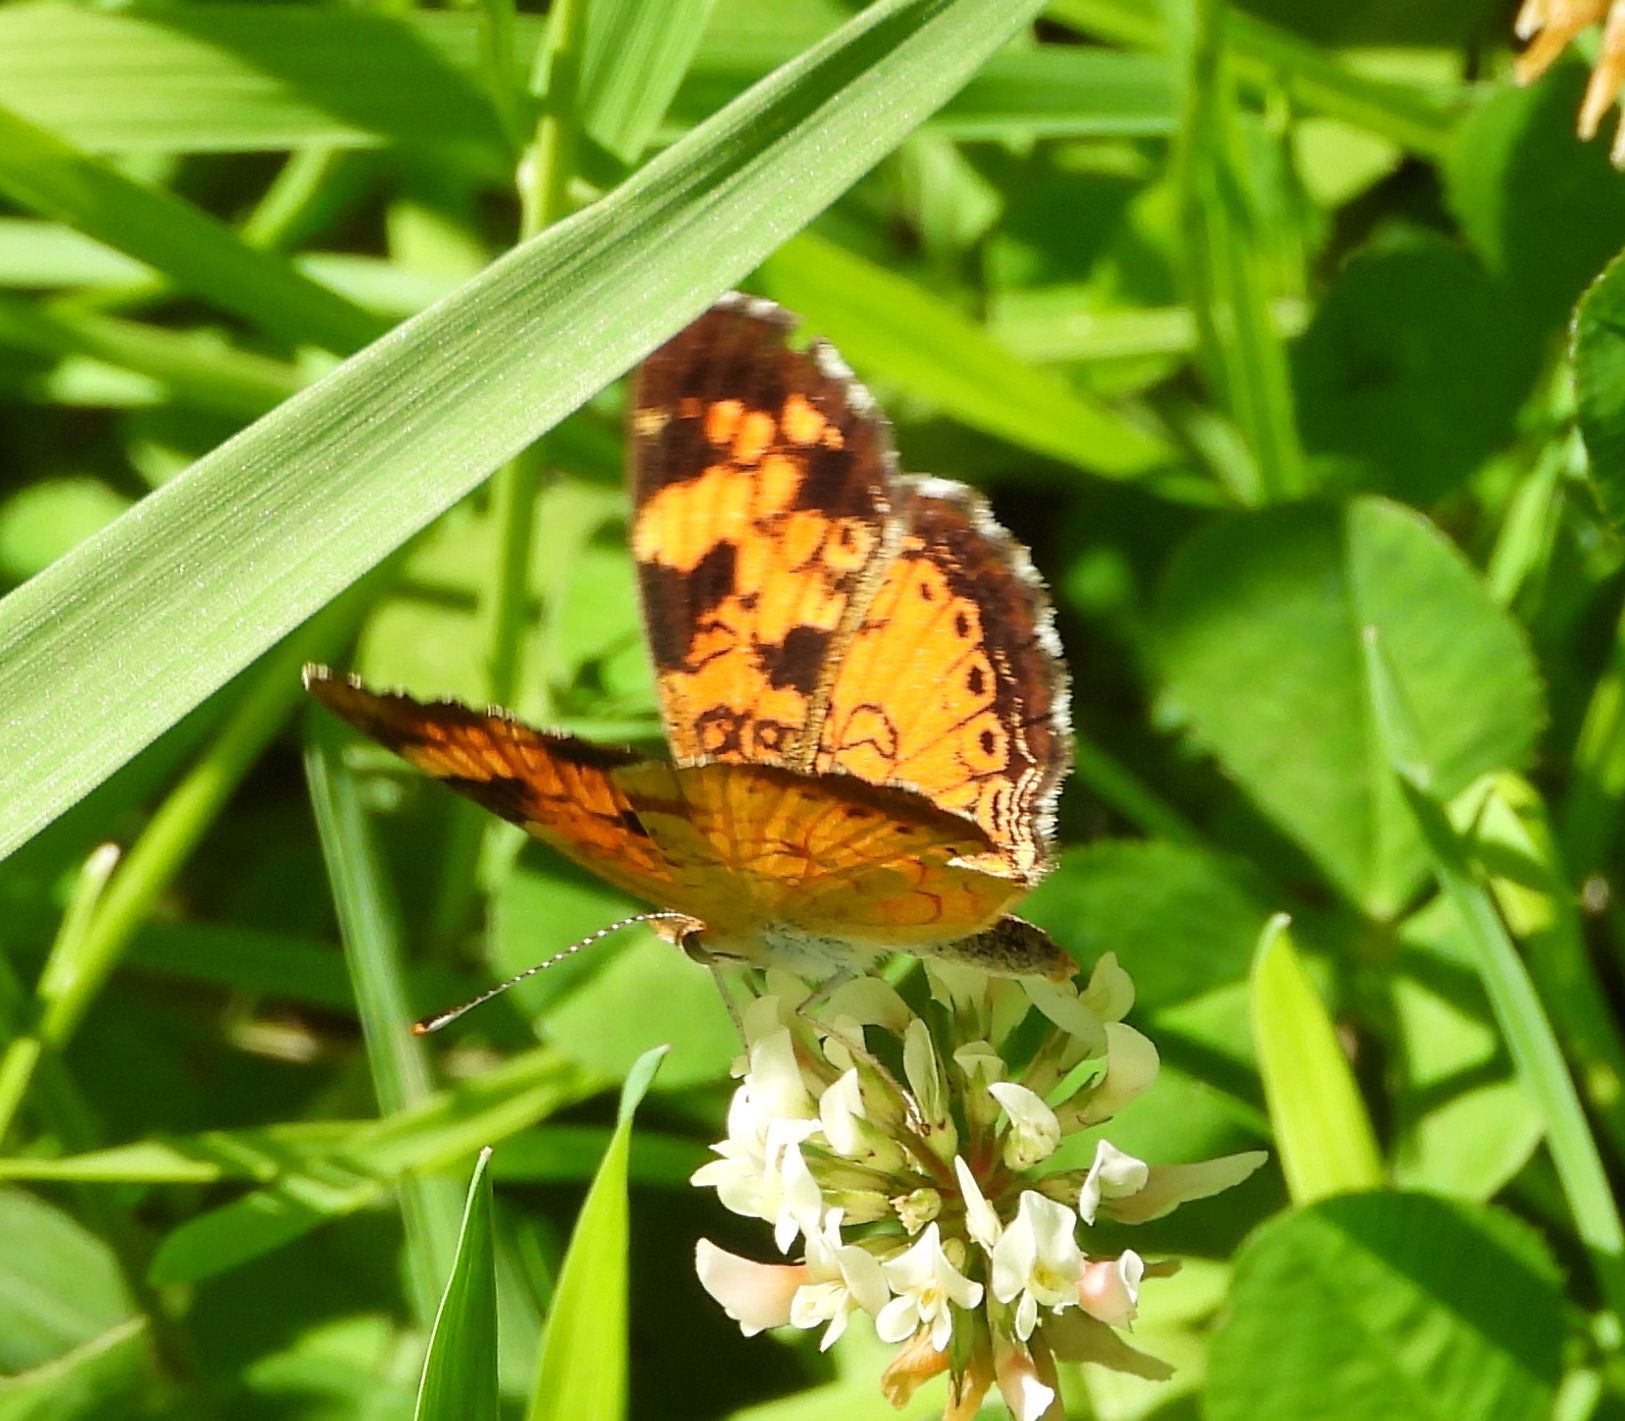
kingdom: Animalia
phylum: Arthropoda
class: Insecta
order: Lepidoptera
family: Nymphalidae
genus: Phyciodes
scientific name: Phyciodes tharos
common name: Pearl crescent
